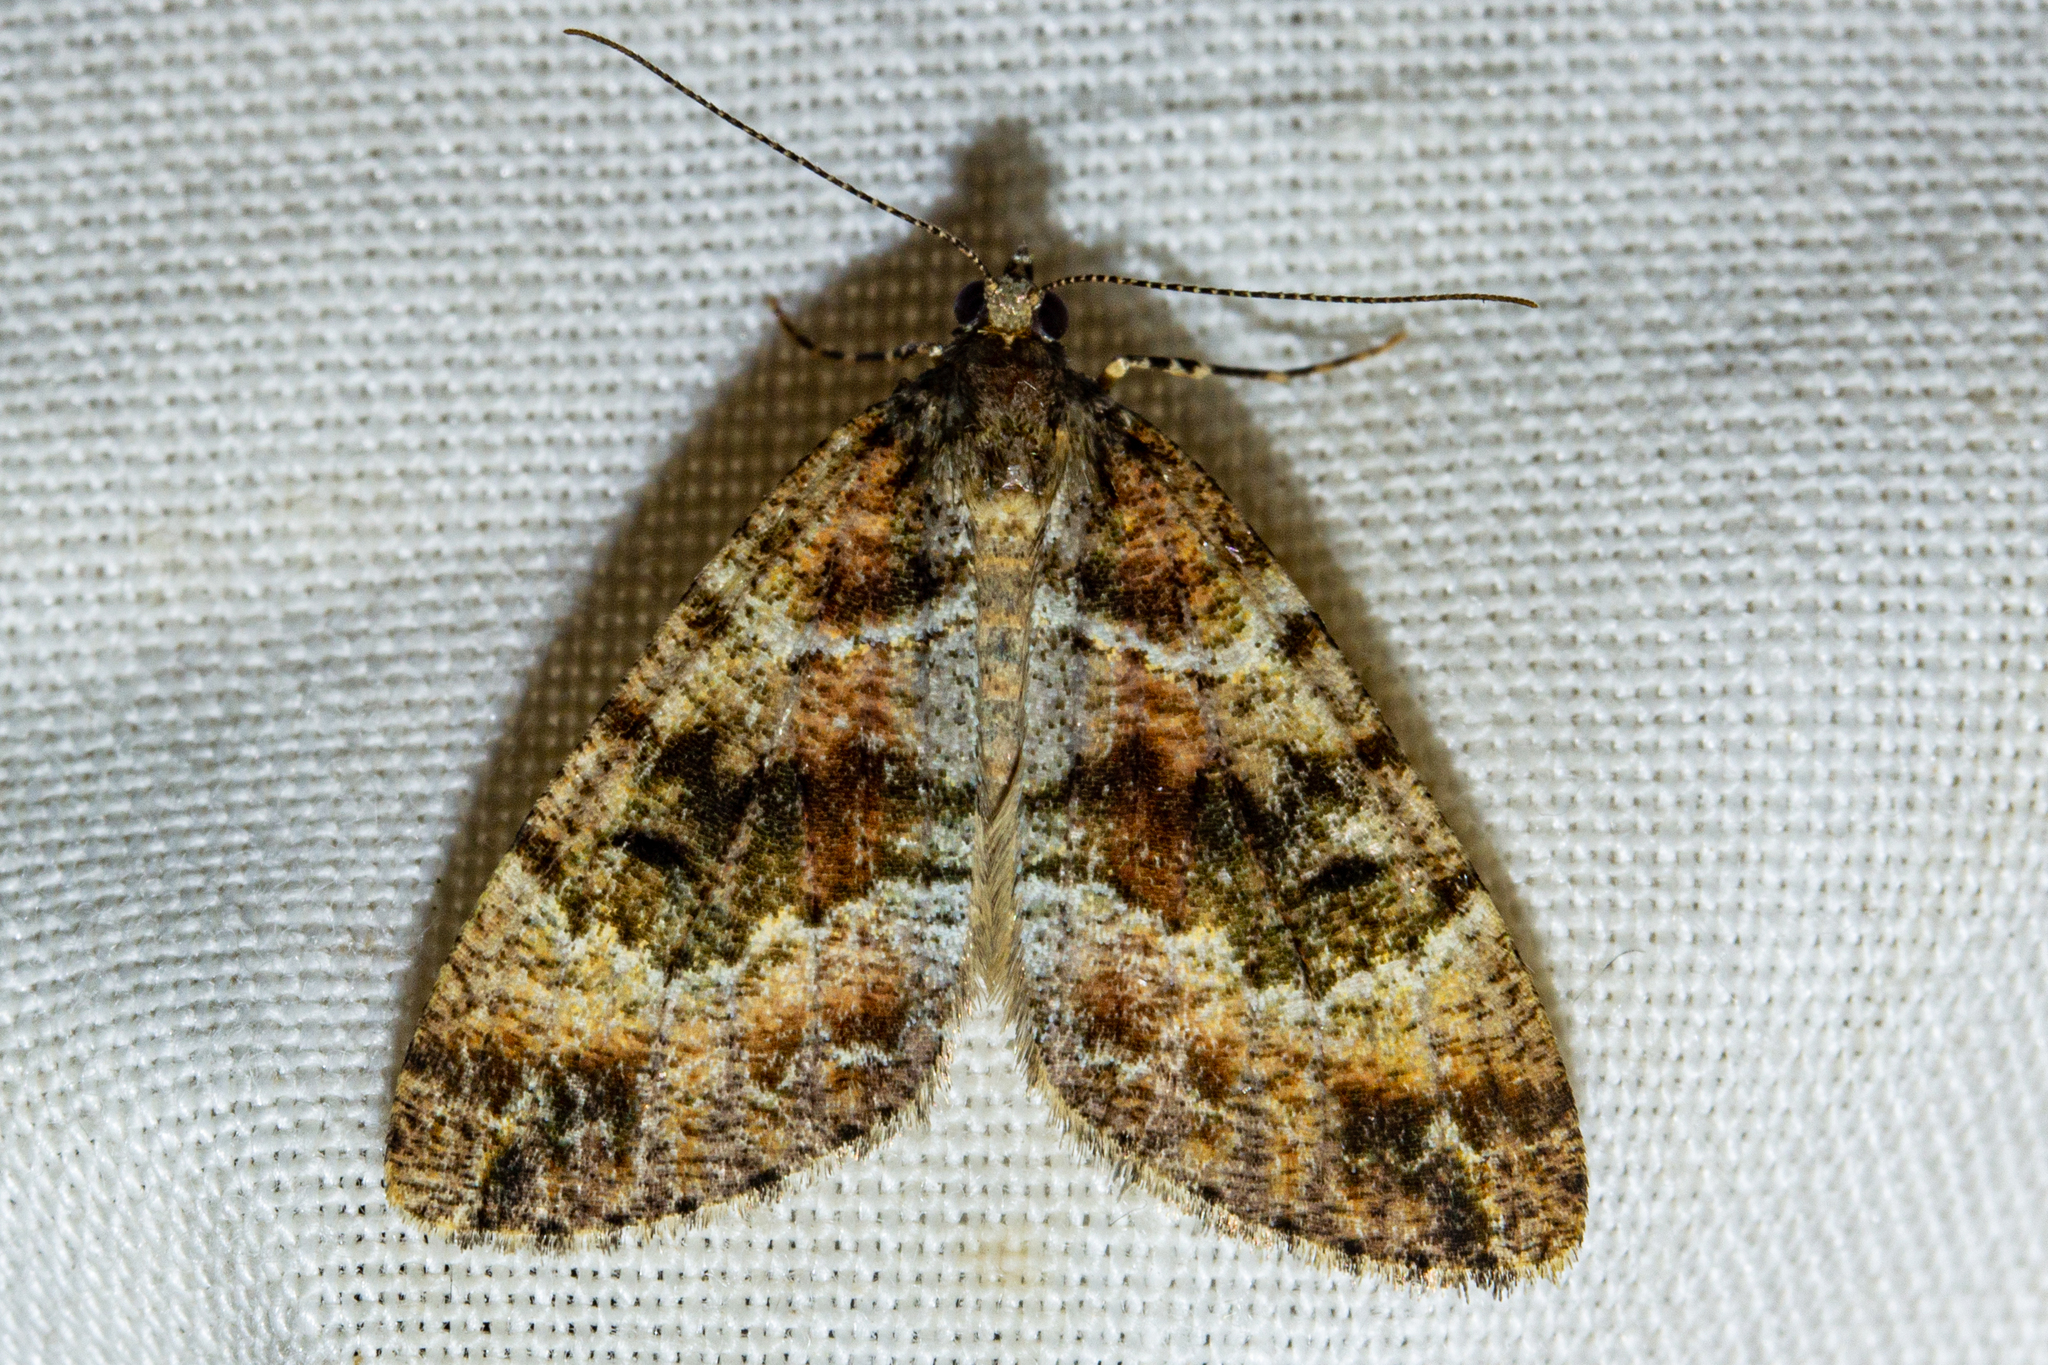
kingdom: Animalia
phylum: Arthropoda
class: Insecta
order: Lepidoptera
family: Geometridae
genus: Pseudocoremia
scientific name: Pseudocoremia productata
